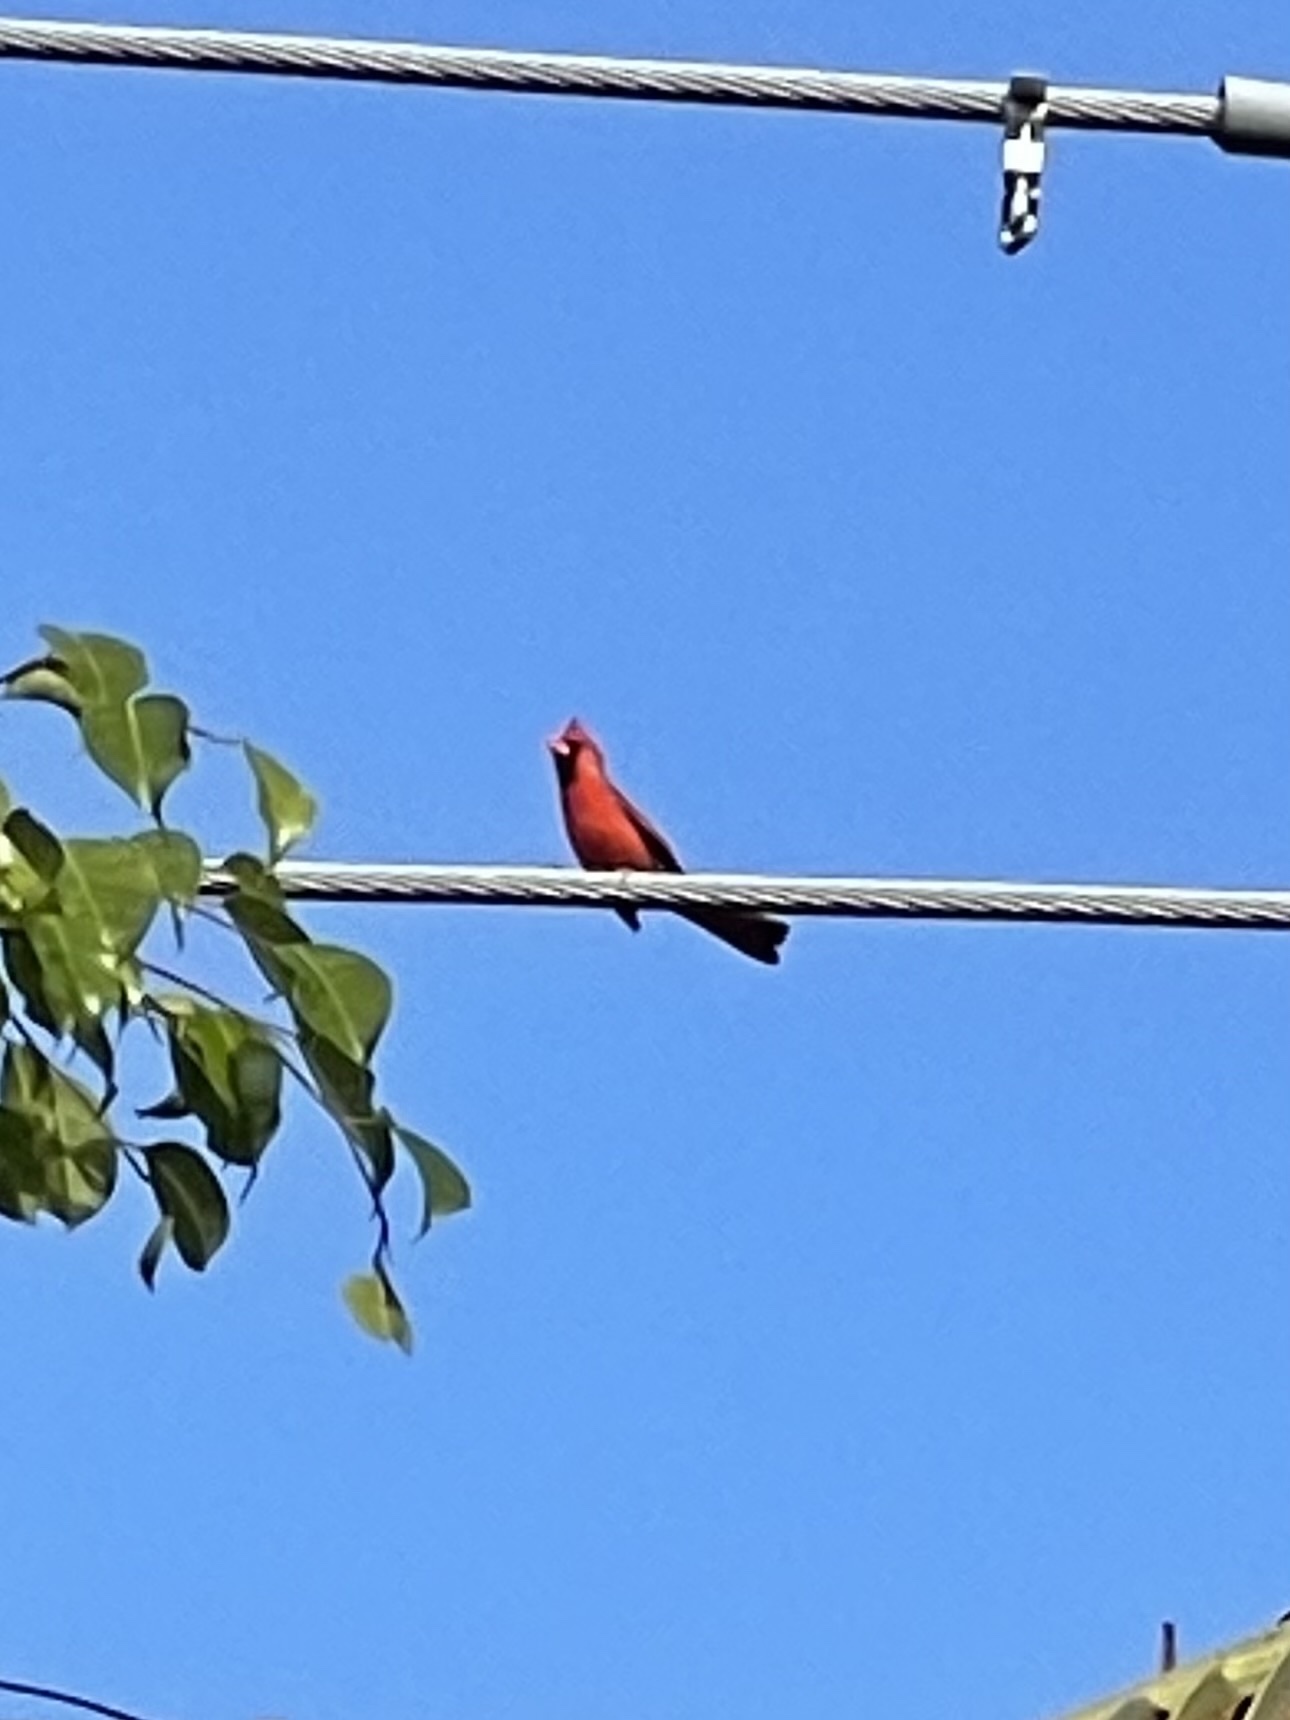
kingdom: Animalia
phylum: Chordata
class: Aves
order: Passeriformes
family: Cardinalidae
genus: Cardinalis
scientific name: Cardinalis cardinalis
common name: Northern cardinal
